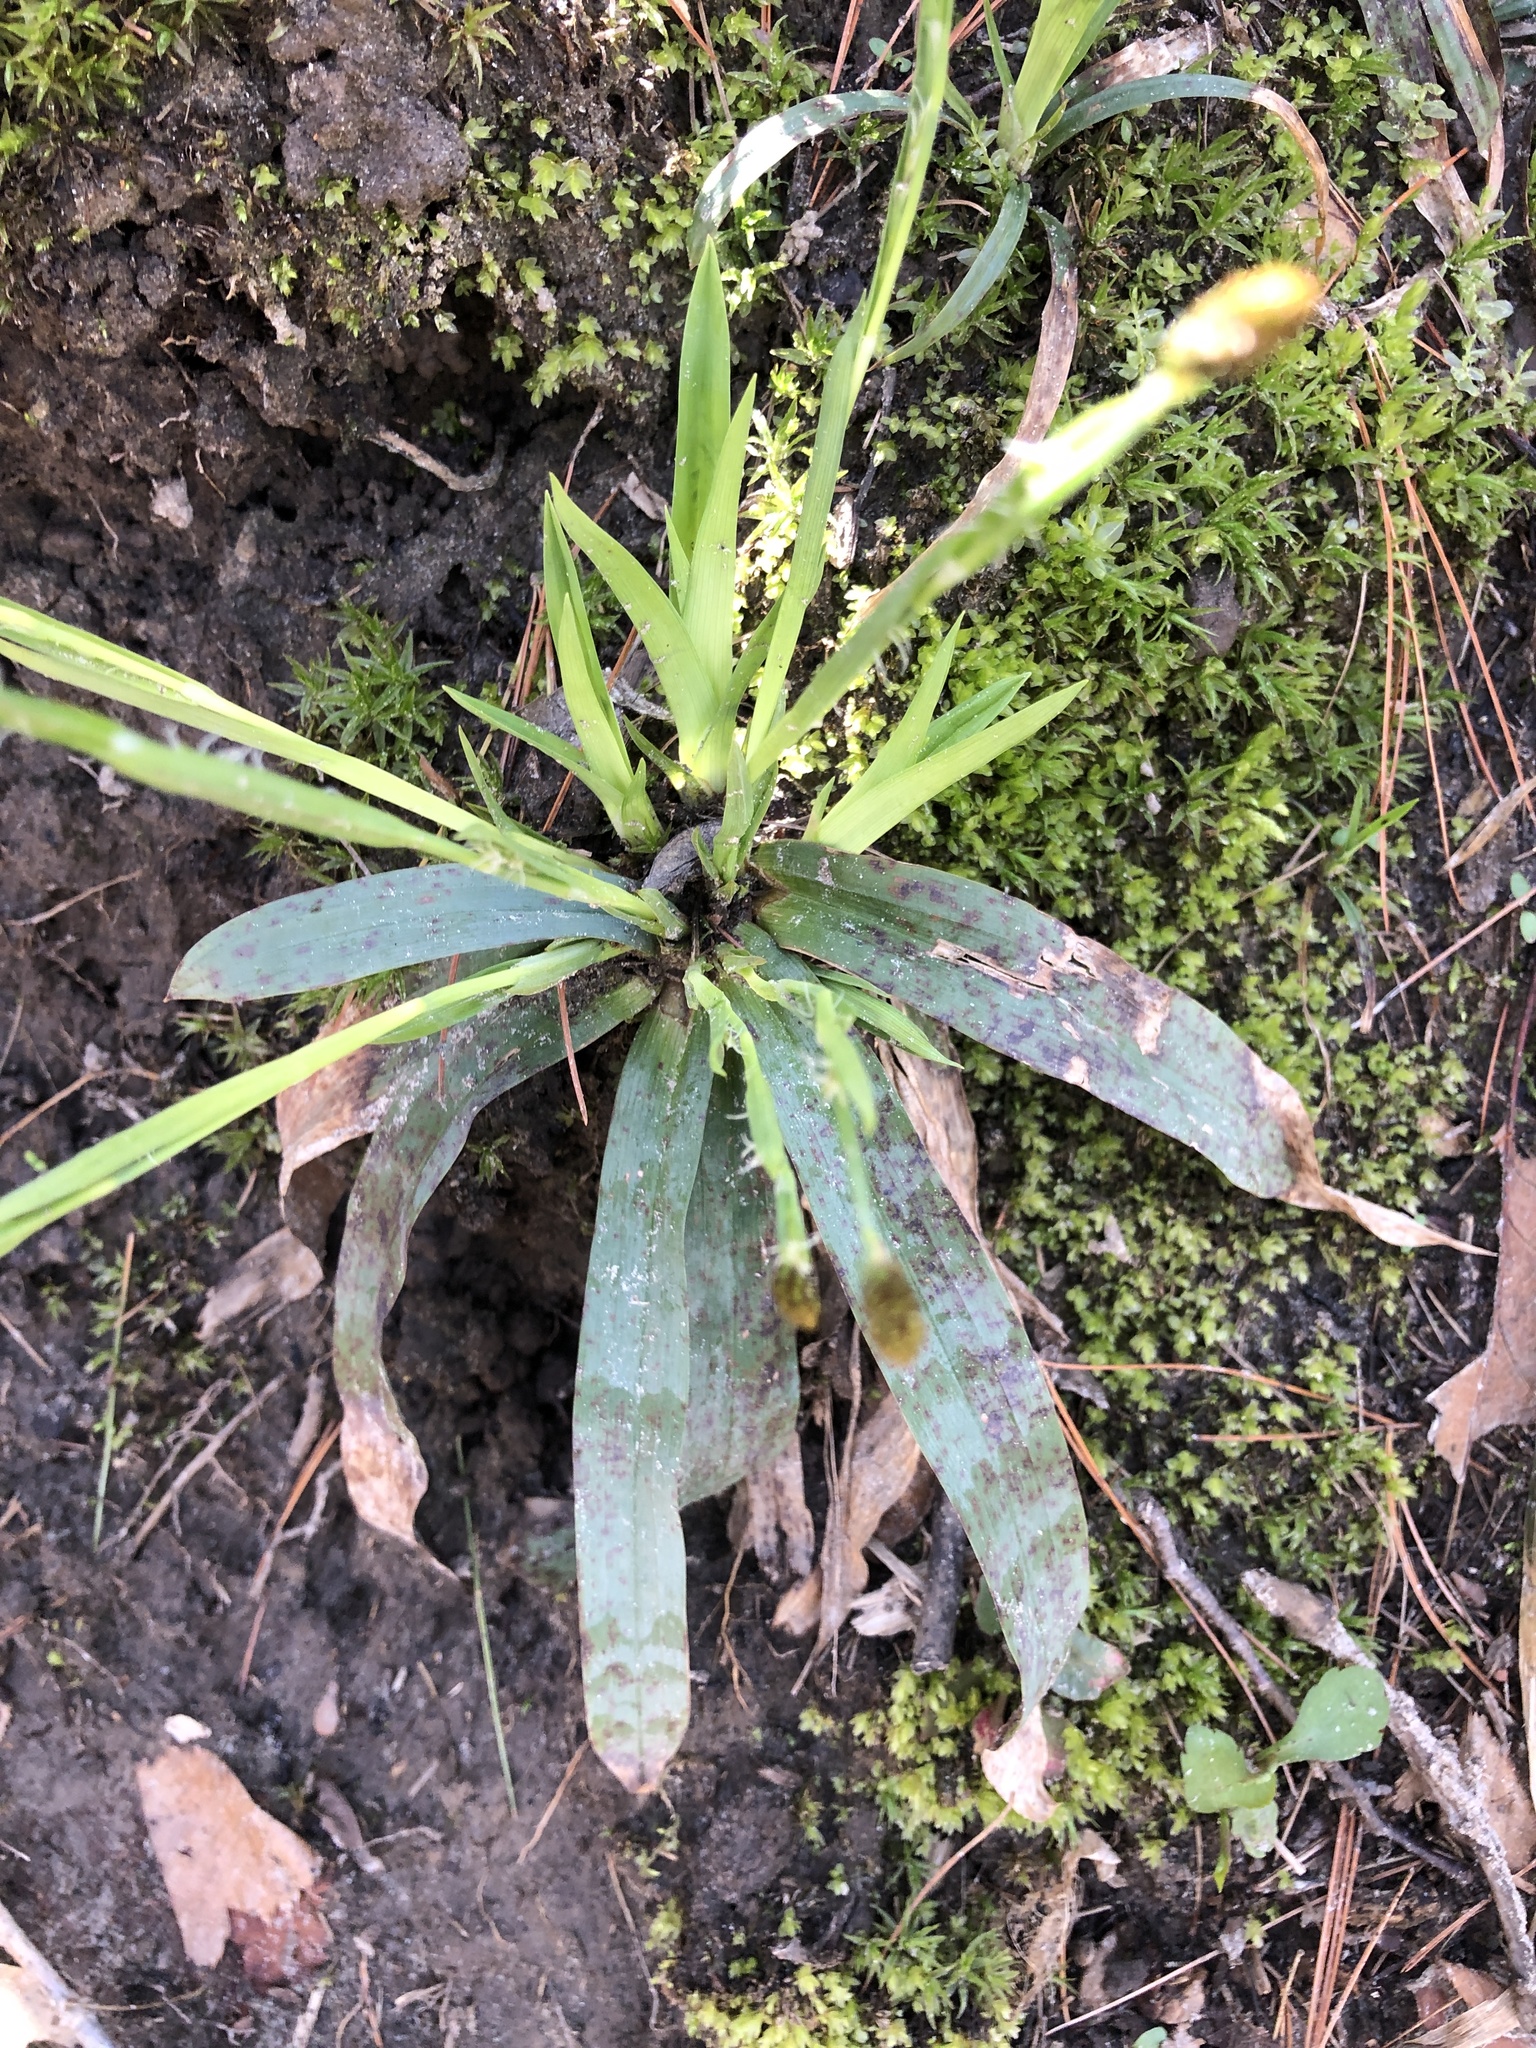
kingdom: Plantae
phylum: Tracheophyta
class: Liliopsida
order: Poales
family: Cyperaceae
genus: Carex
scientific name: Carex platyphylla
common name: Broad-leaved sedge
